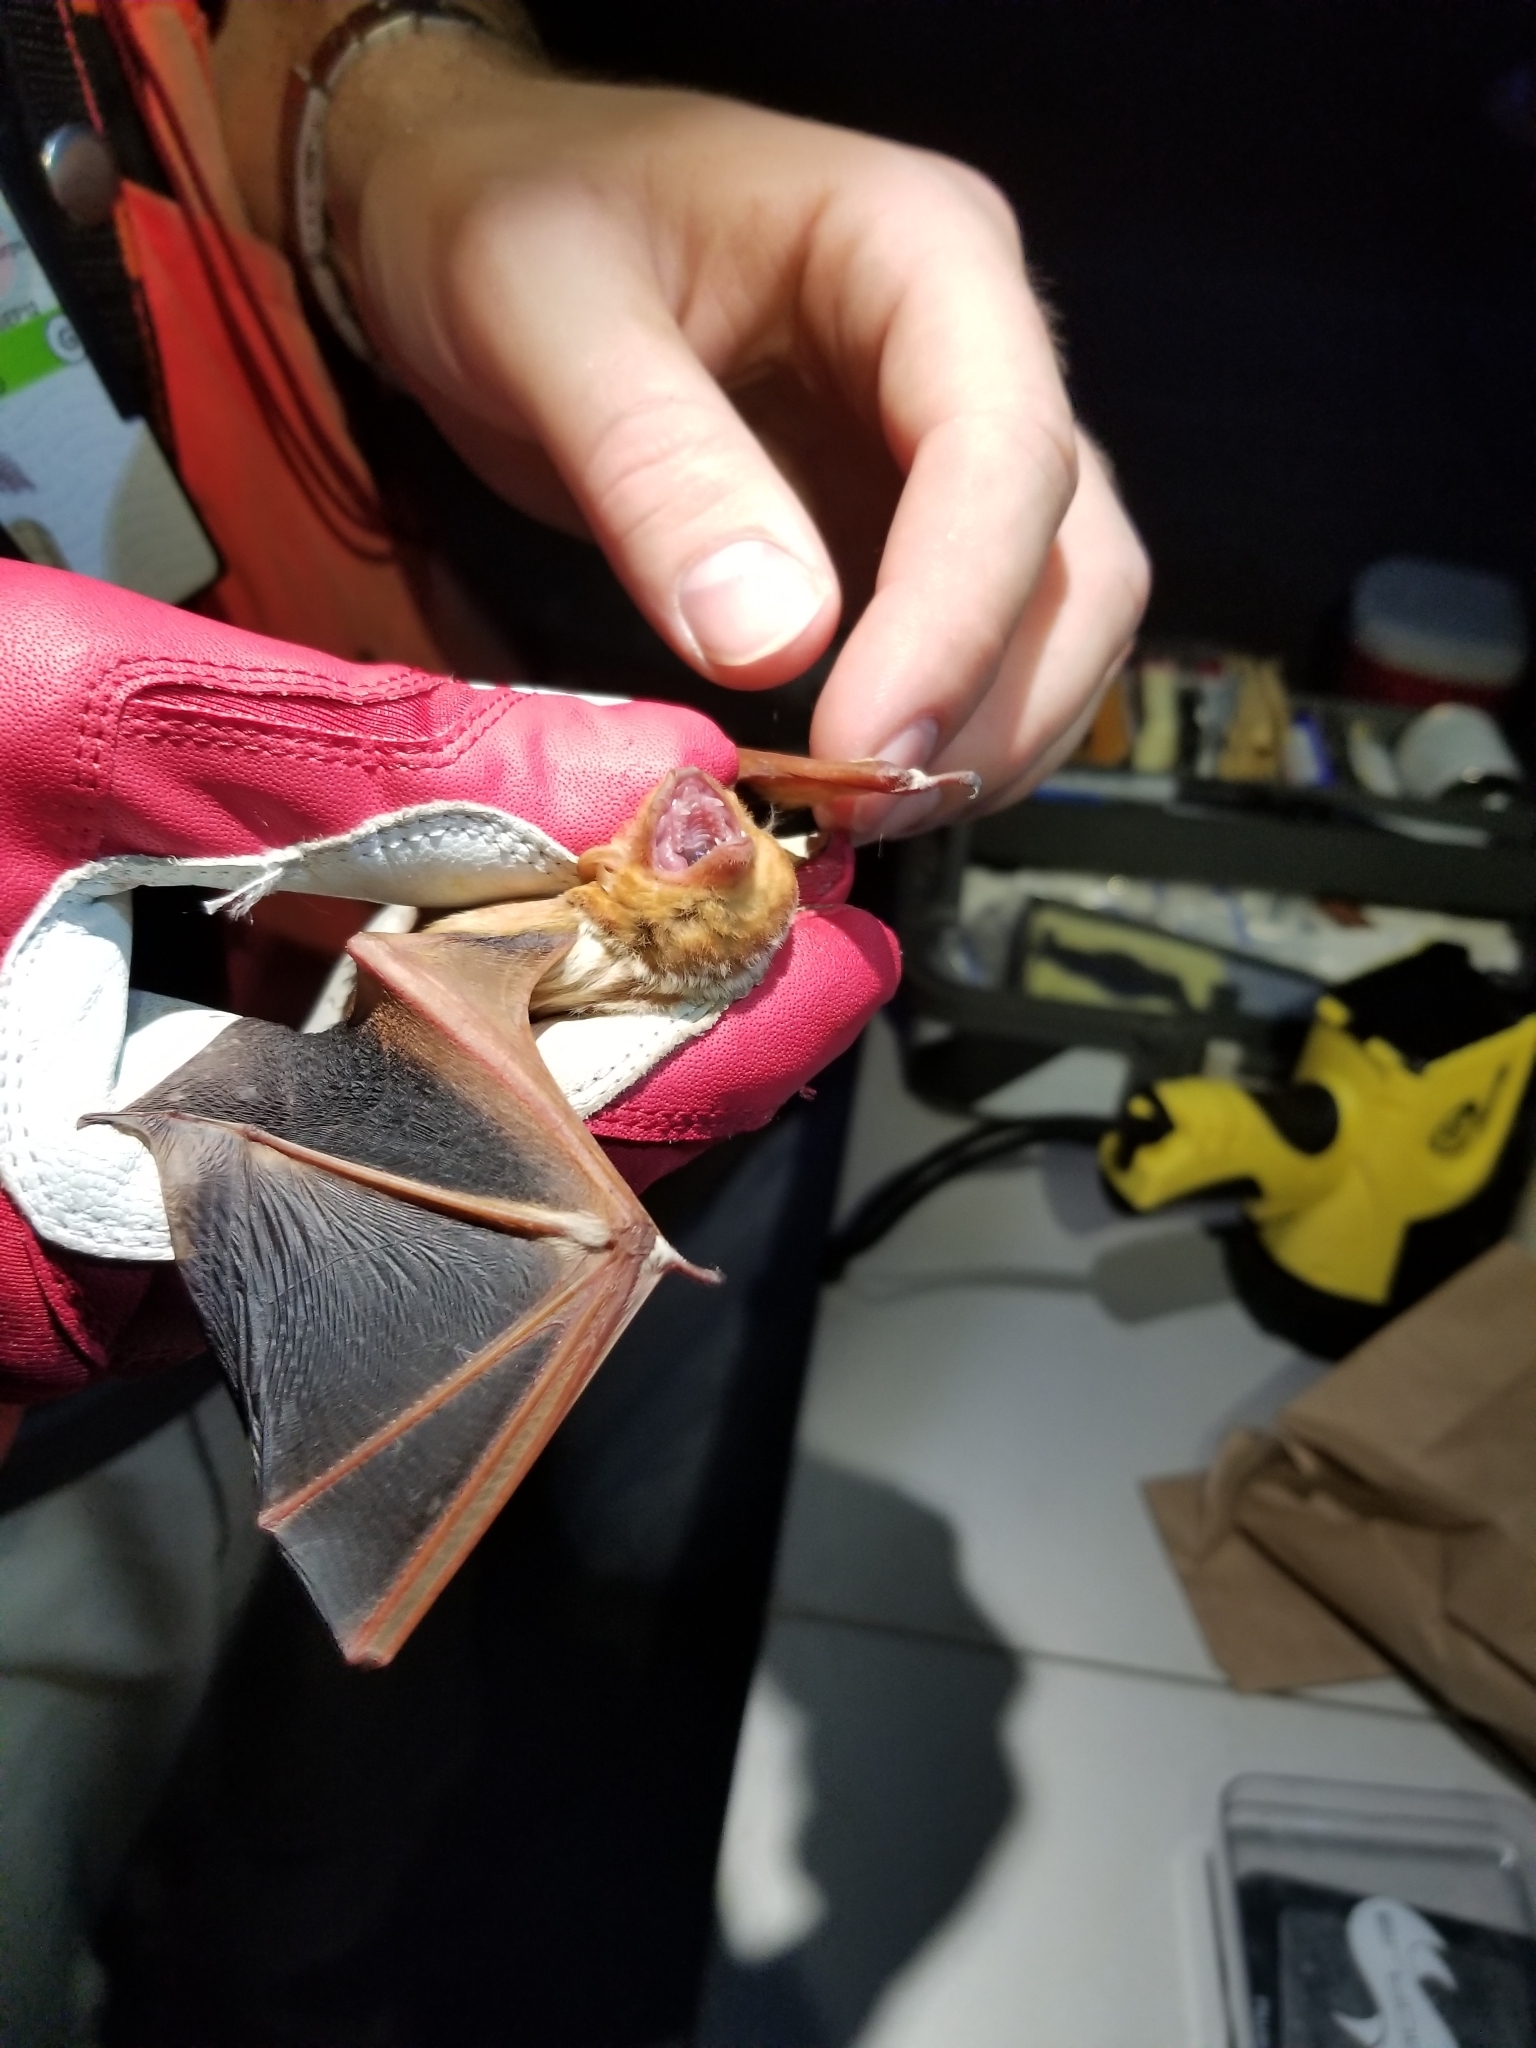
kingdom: Animalia
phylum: Chordata
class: Mammalia
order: Chiroptera
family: Vespertilionidae
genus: Lasiurus
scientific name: Lasiurus borealis
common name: Eastern red bat
